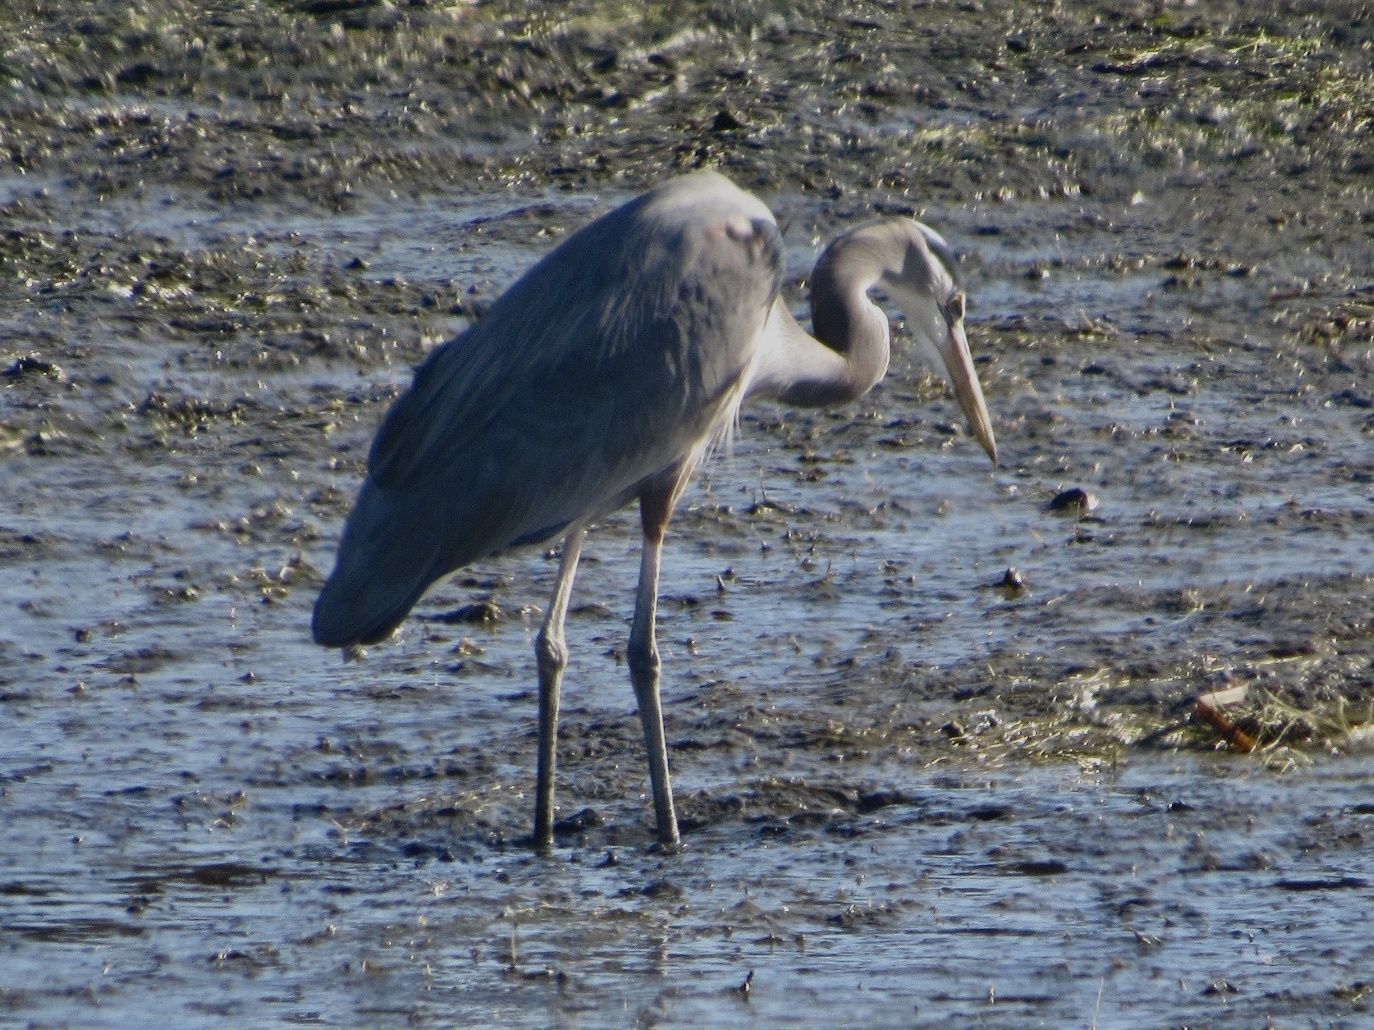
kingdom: Animalia
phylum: Chordata
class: Aves
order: Pelecaniformes
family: Ardeidae
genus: Ardea
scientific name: Ardea herodias
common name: Great blue heron
